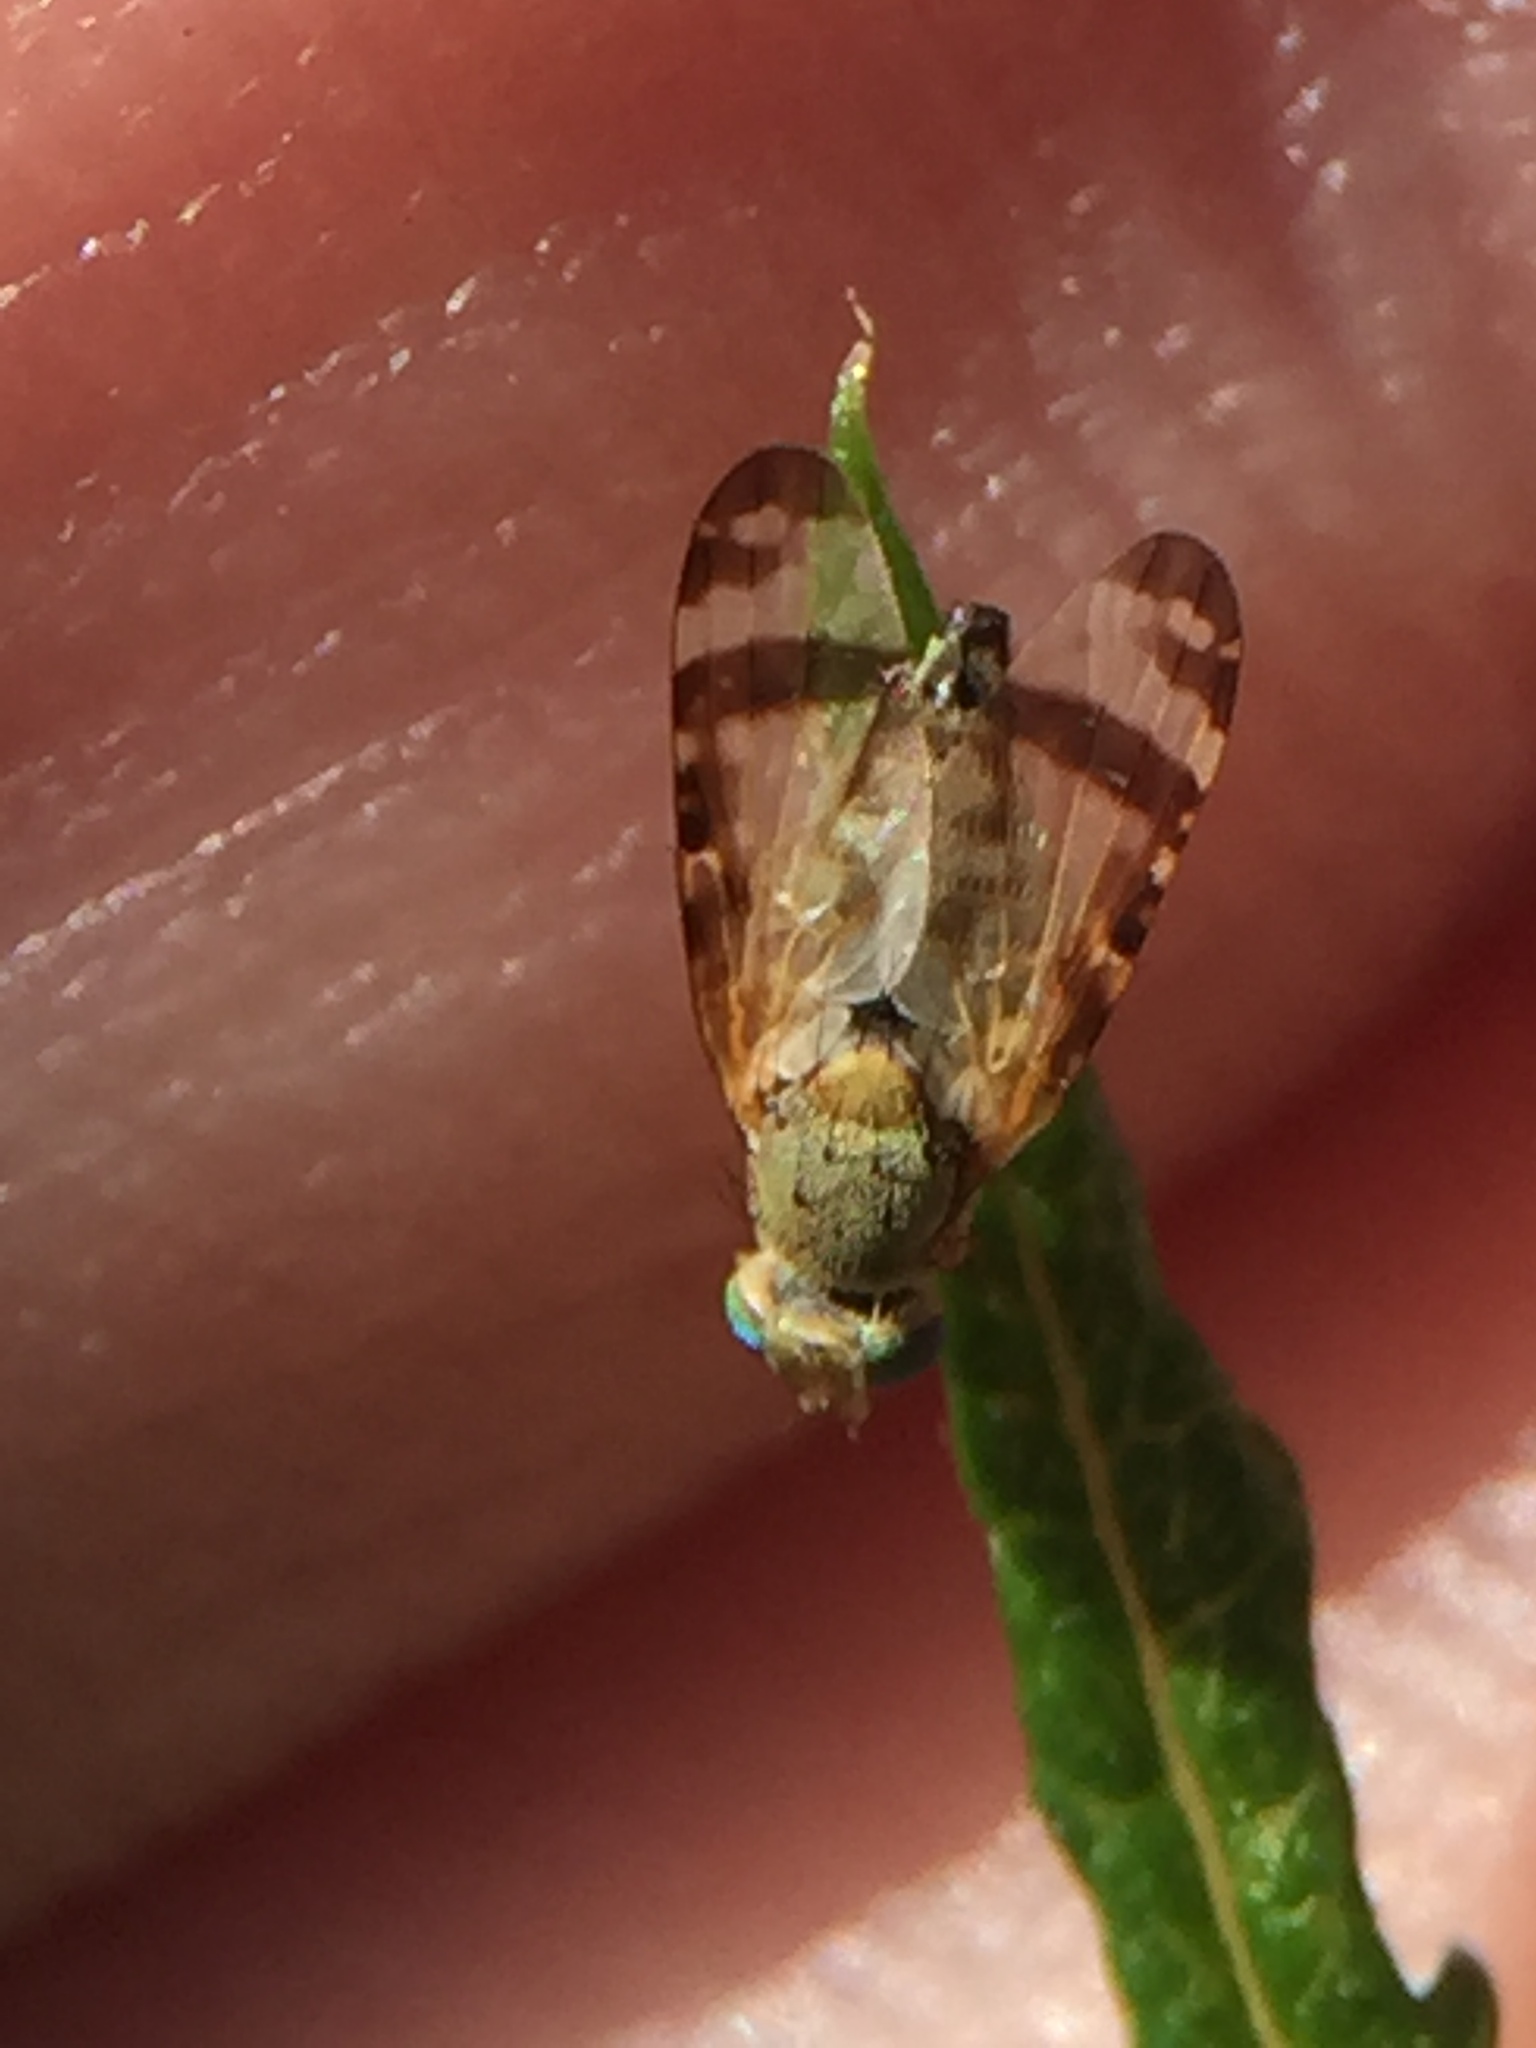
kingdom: Animalia
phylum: Arthropoda
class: Insecta
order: Diptera
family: Tephritidae
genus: Sphenella
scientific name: Sphenella ruficeps
